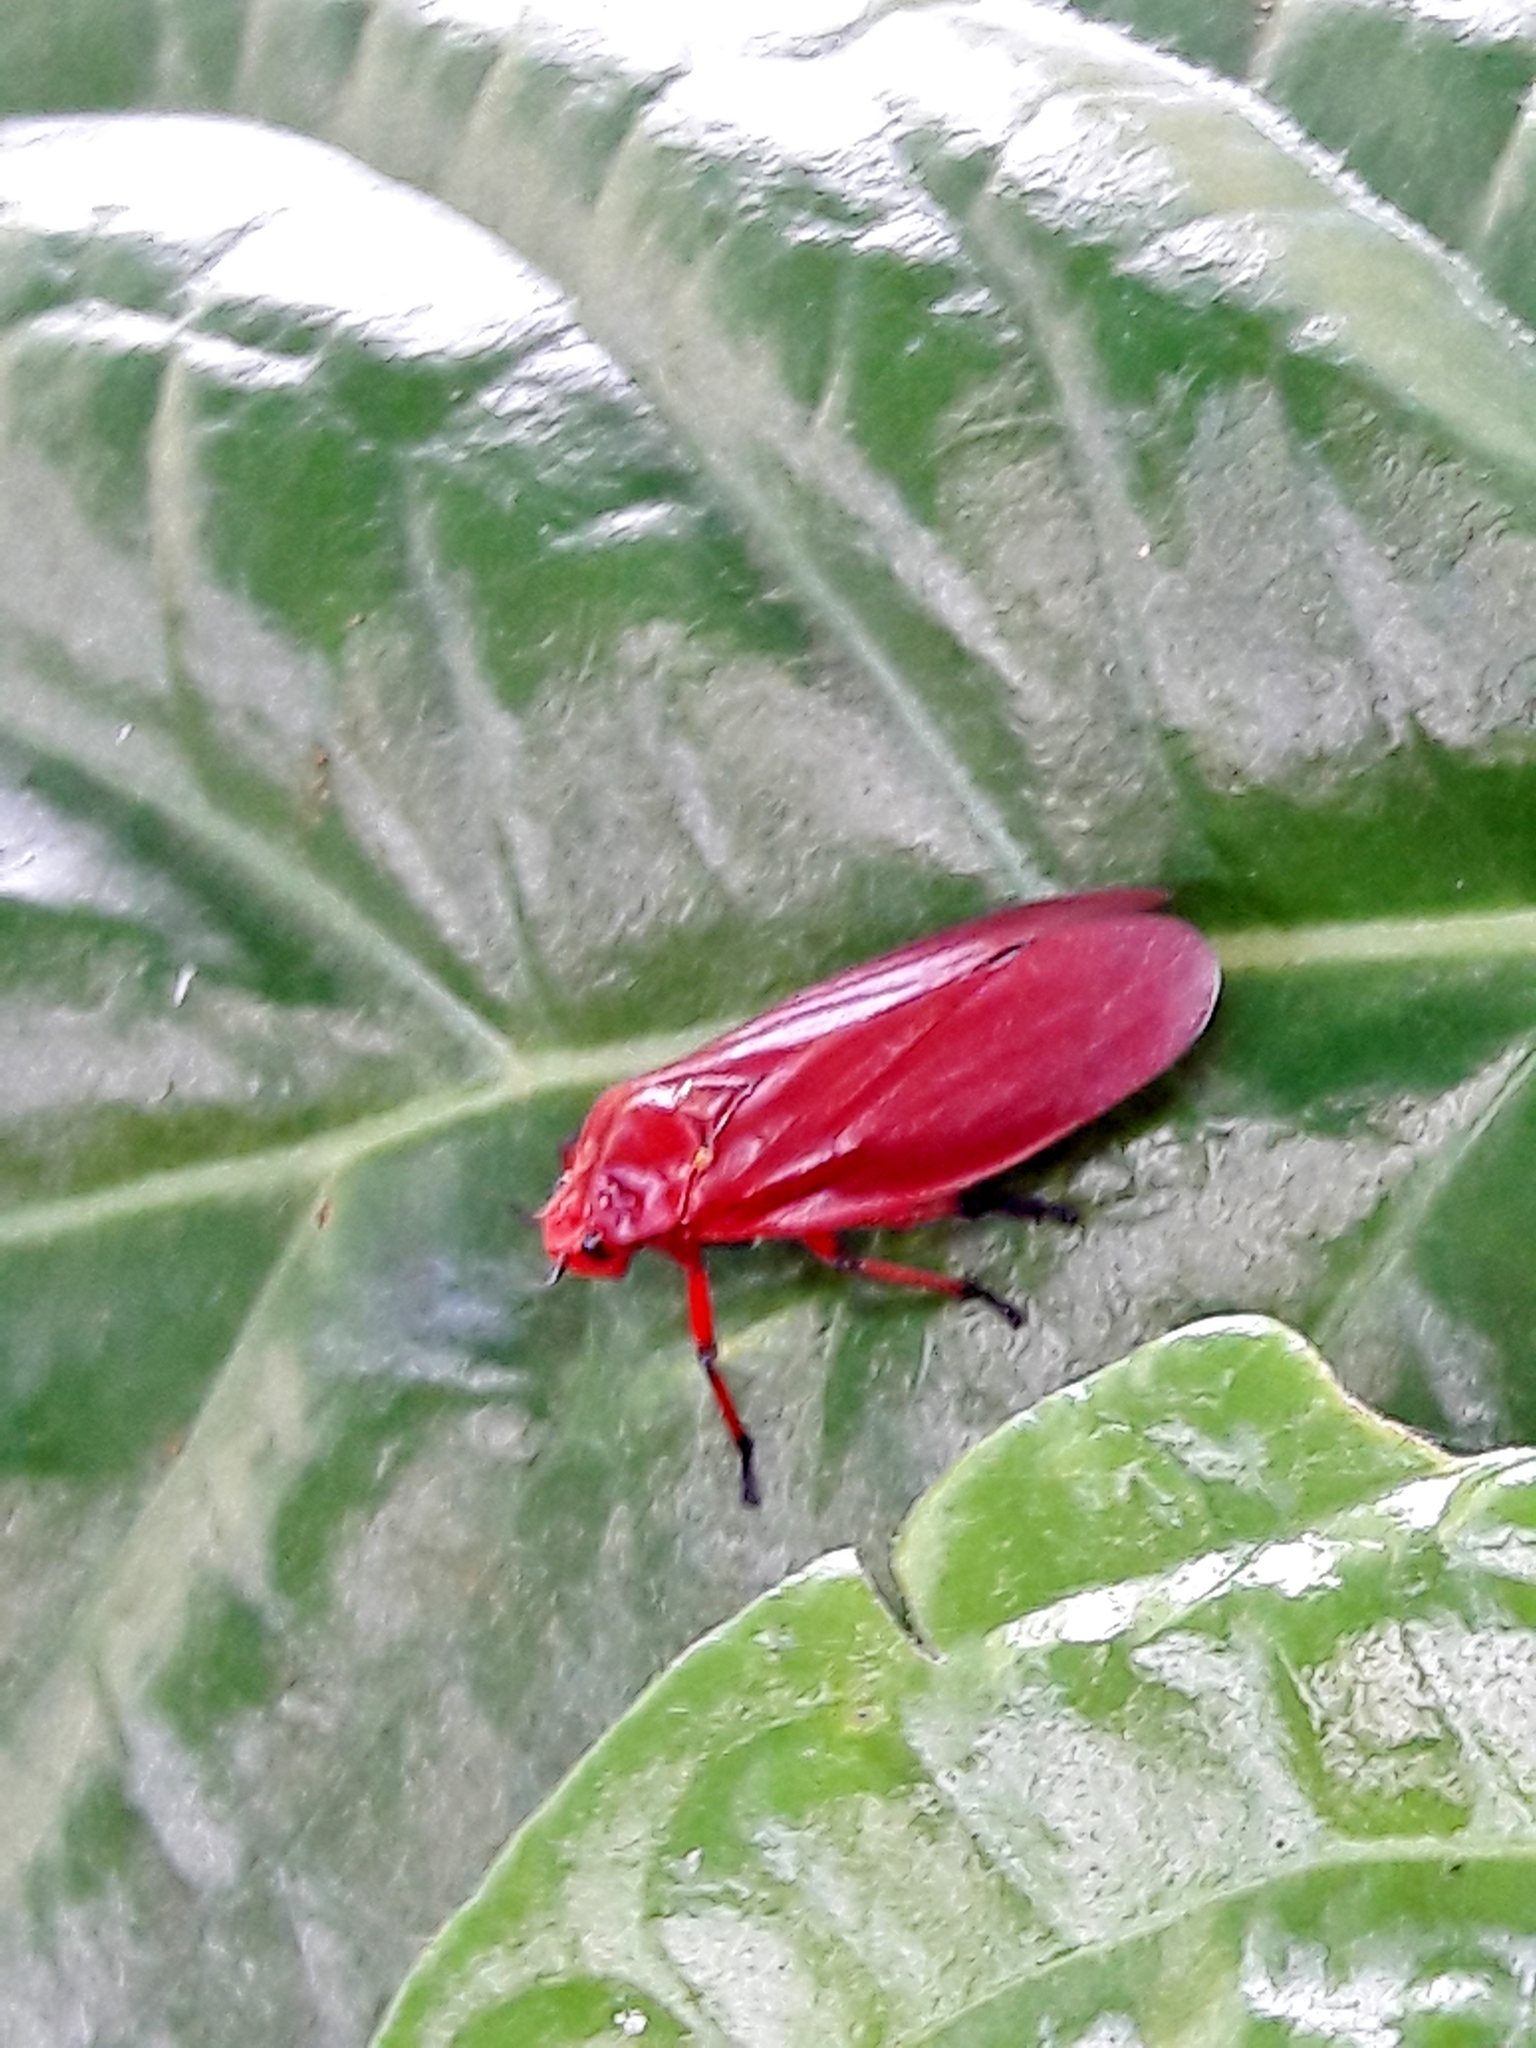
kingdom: Animalia
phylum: Arthropoda
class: Insecta
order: Hemiptera
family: Cercopidae
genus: Homalogrypota
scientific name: Homalogrypota coccinea
